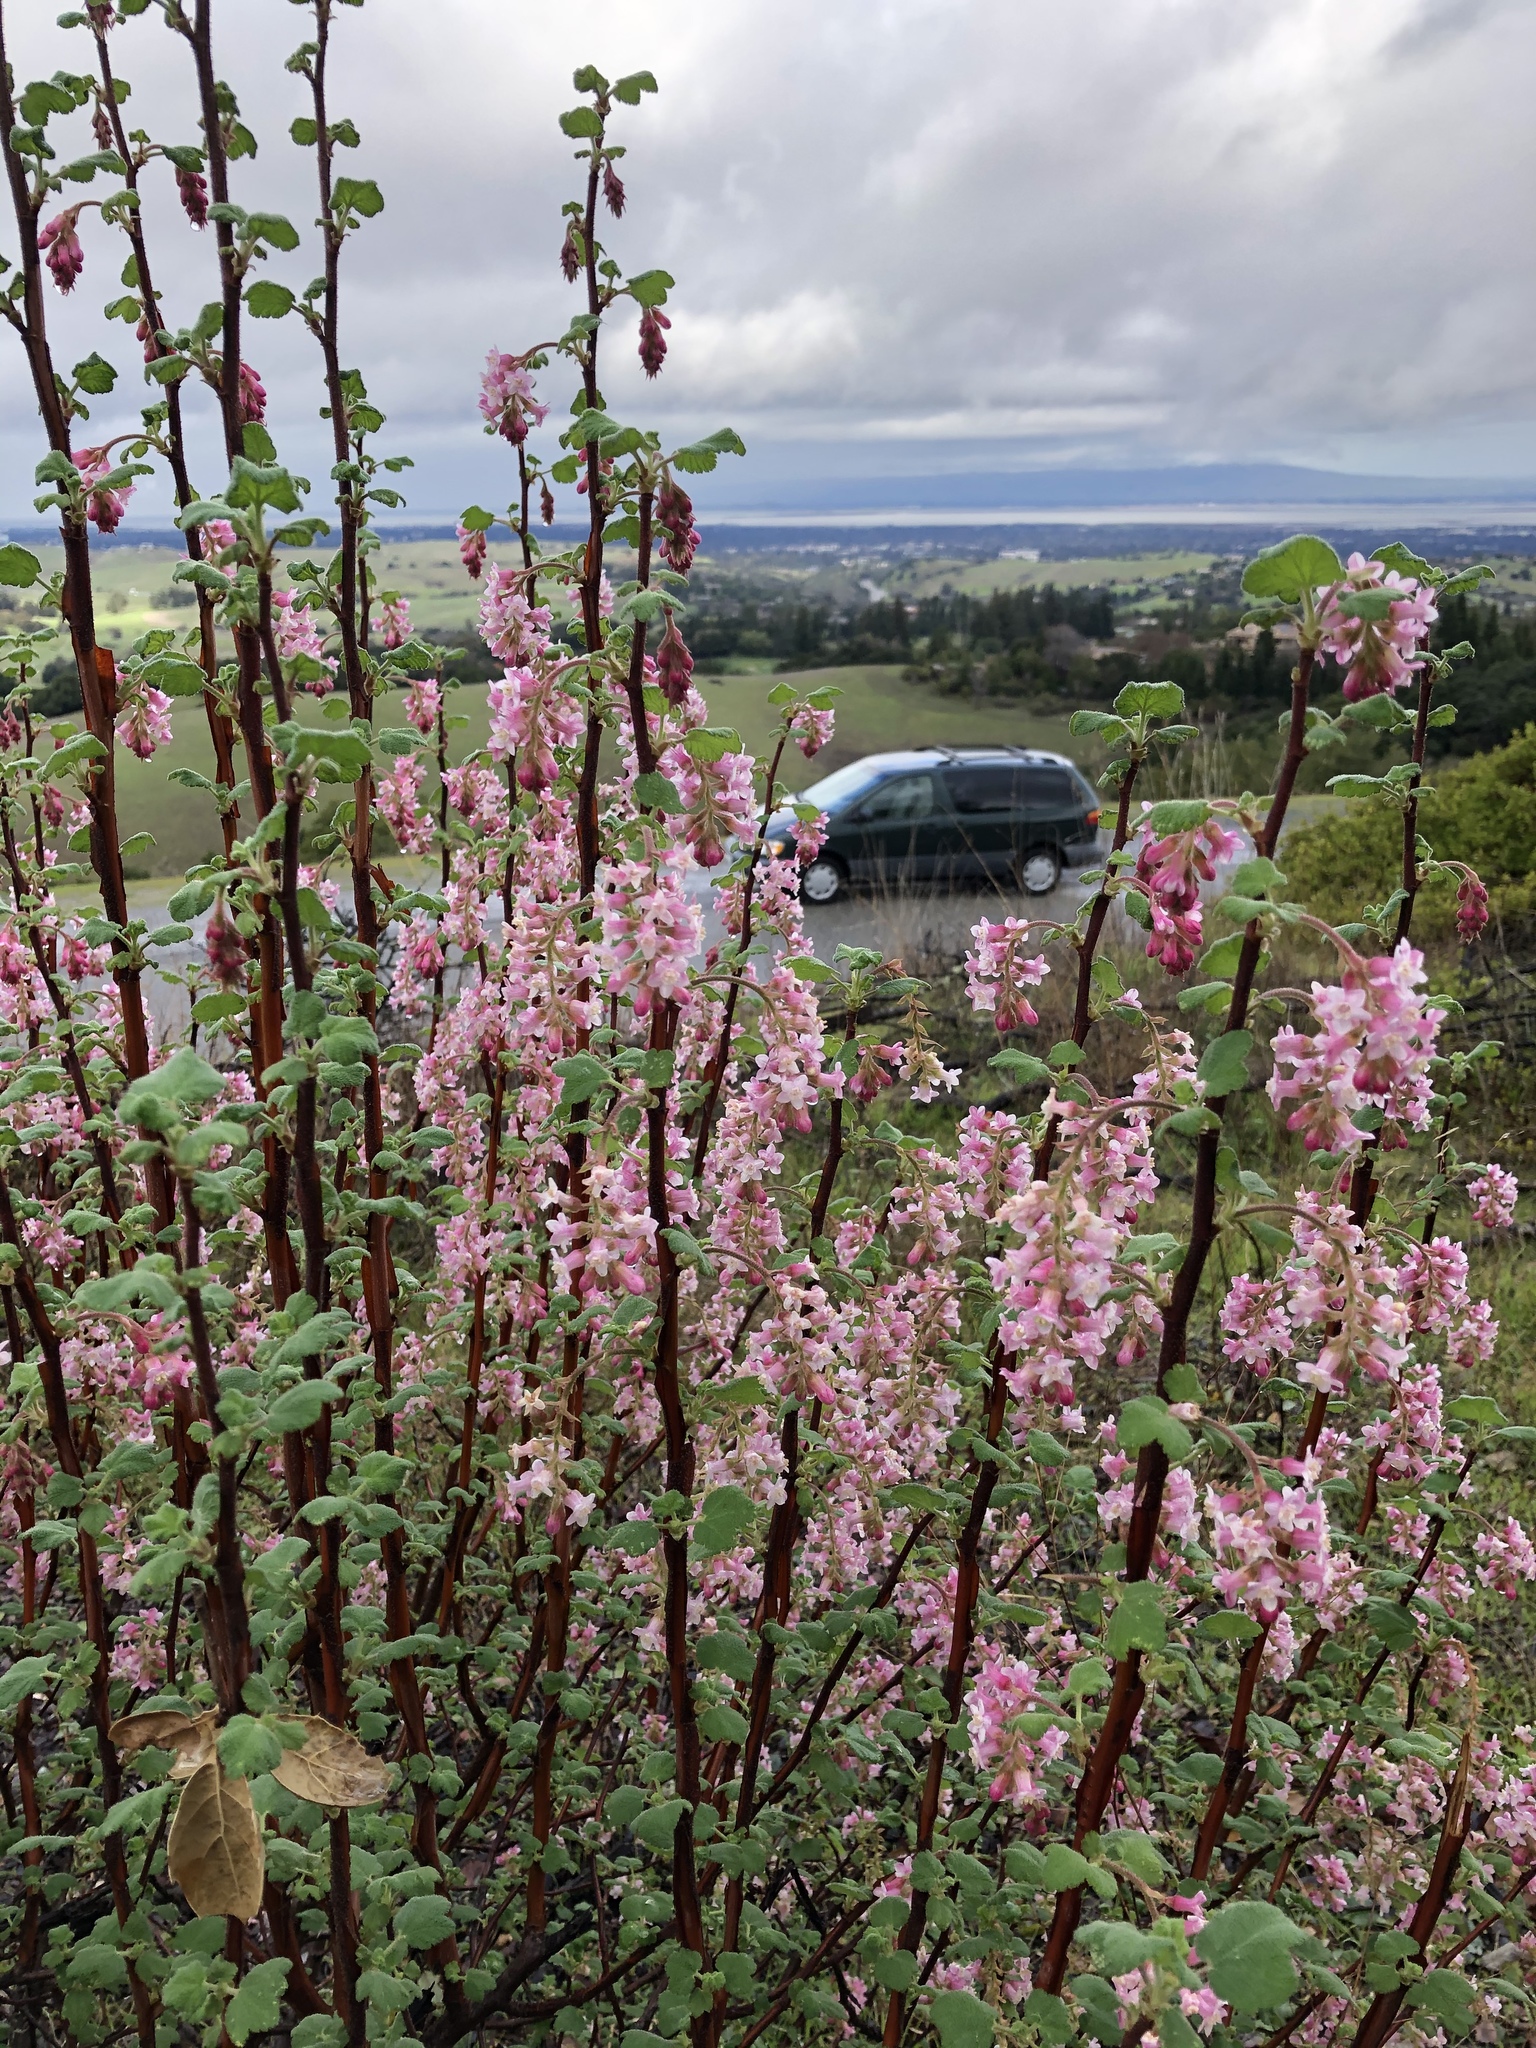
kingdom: Plantae
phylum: Tracheophyta
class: Magnoliopsida
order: Saxifragales
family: Grossulariaceae
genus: Ribes
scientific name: Ribes malvaceum
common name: Chaparral currant
